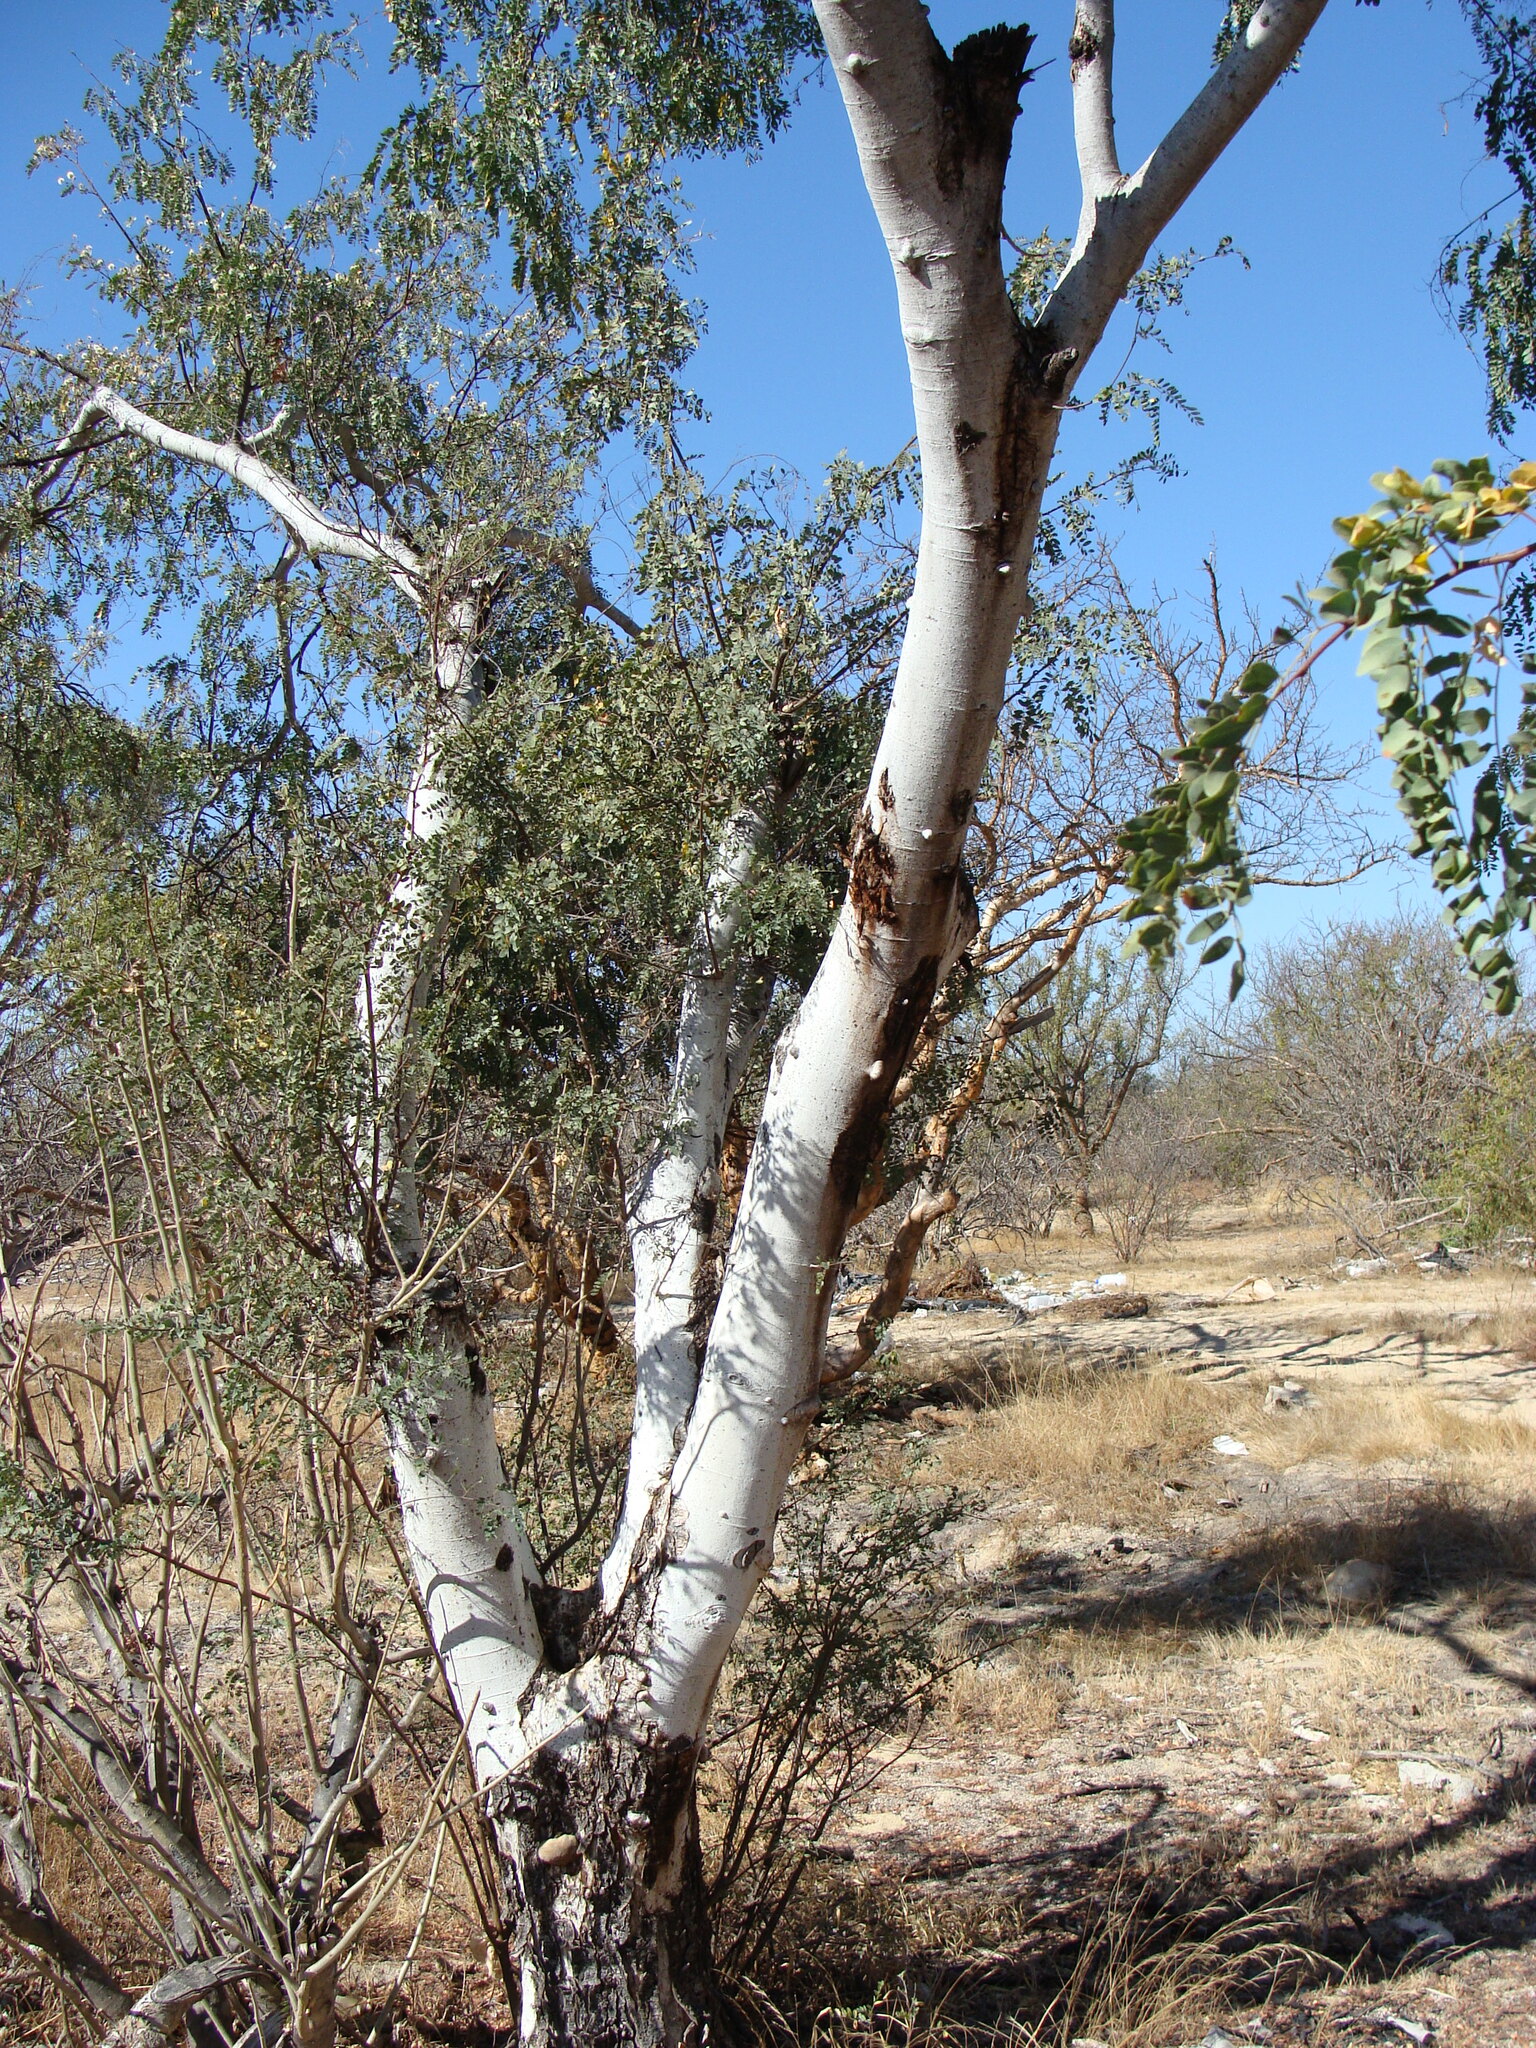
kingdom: Plantae
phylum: Tracheophyta
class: Magnoliopsida
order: Fabales
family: Fabaceae
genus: Lysiloma
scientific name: Lysiloma candidum
